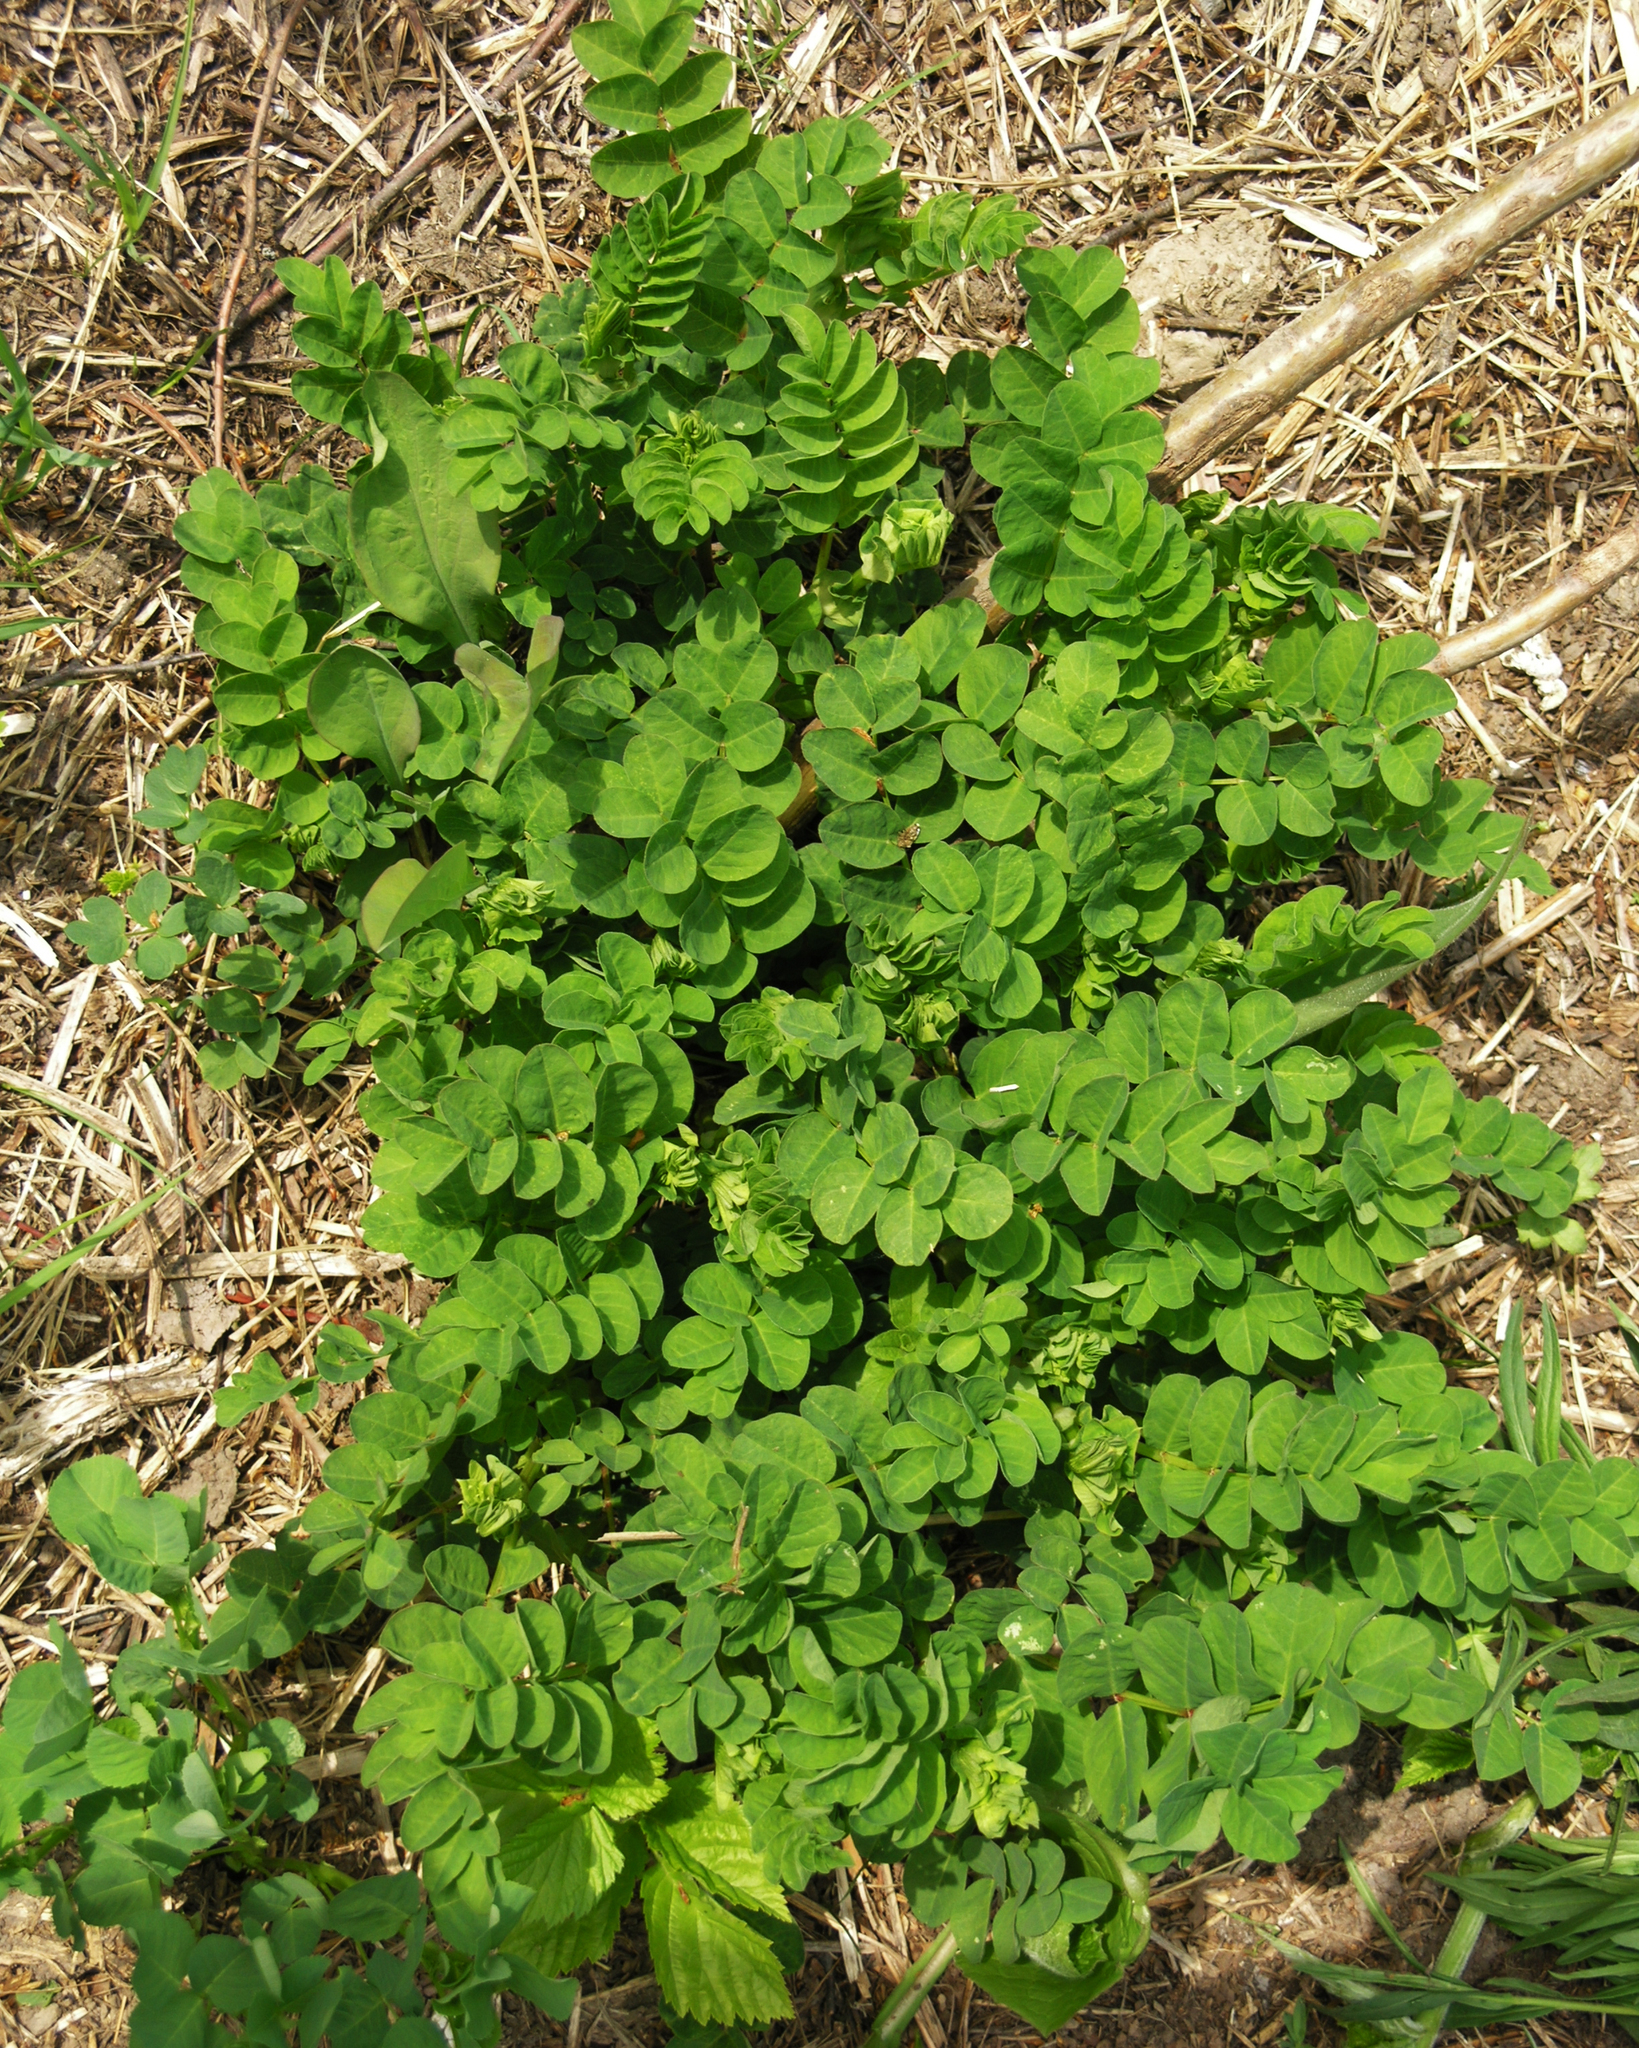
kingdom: Plantae
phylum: Tracheophyta
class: Magnoliopsida
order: Fabales
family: Fabaceae
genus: Astragalus
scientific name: Astragalus glycyphyllos
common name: Wild liquorice
